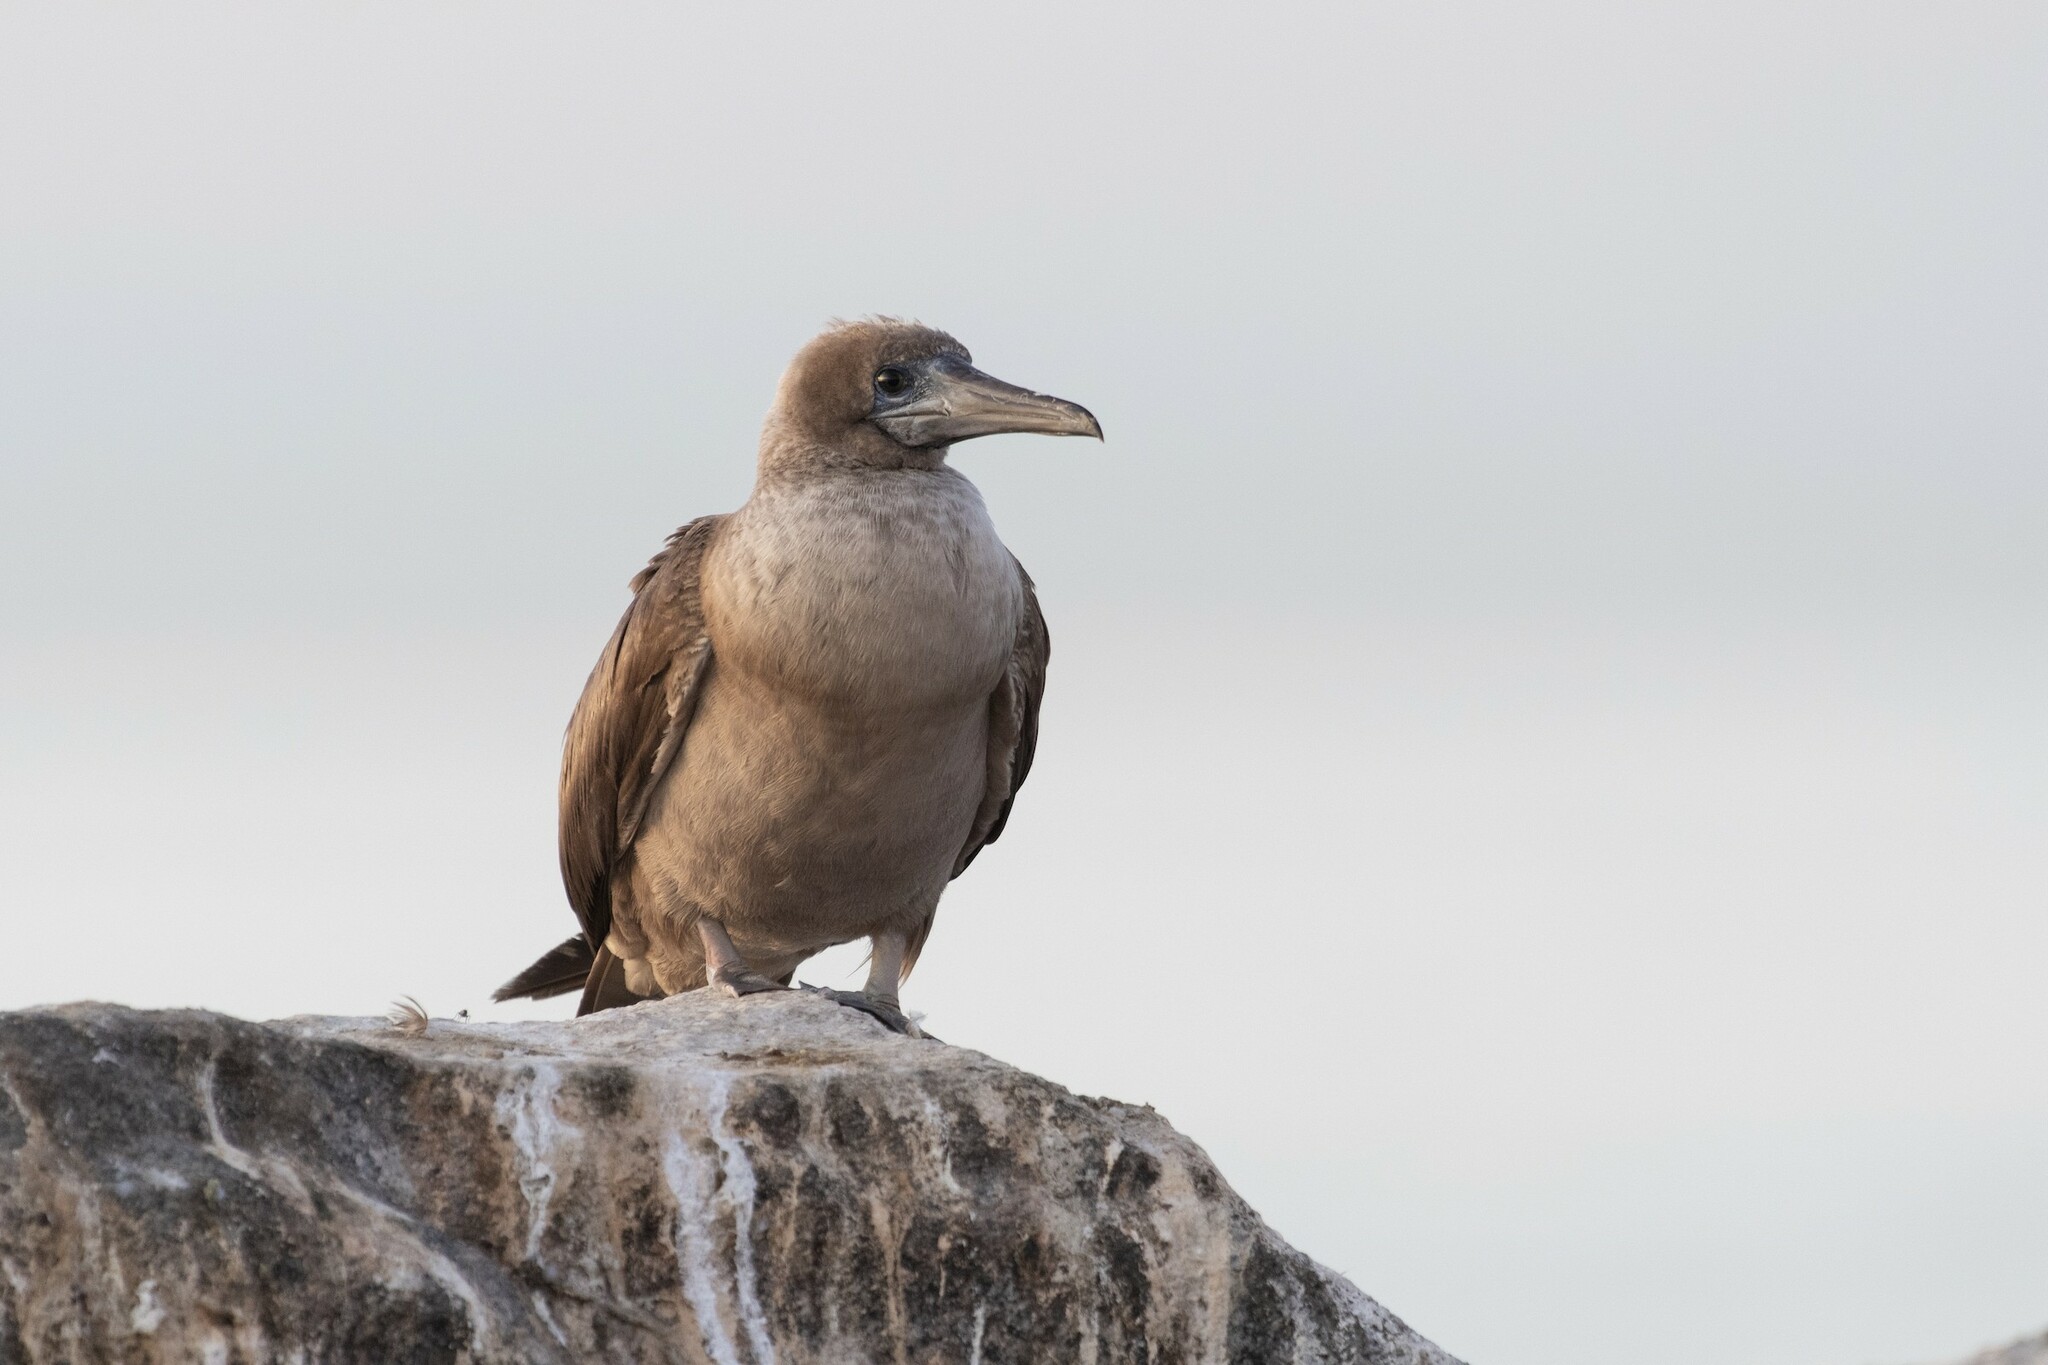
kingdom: Animalia
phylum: Chordata
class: Aves
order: Suliformes
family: Sulidae
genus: Sula
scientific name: Sula sula
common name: Red-footed booby
